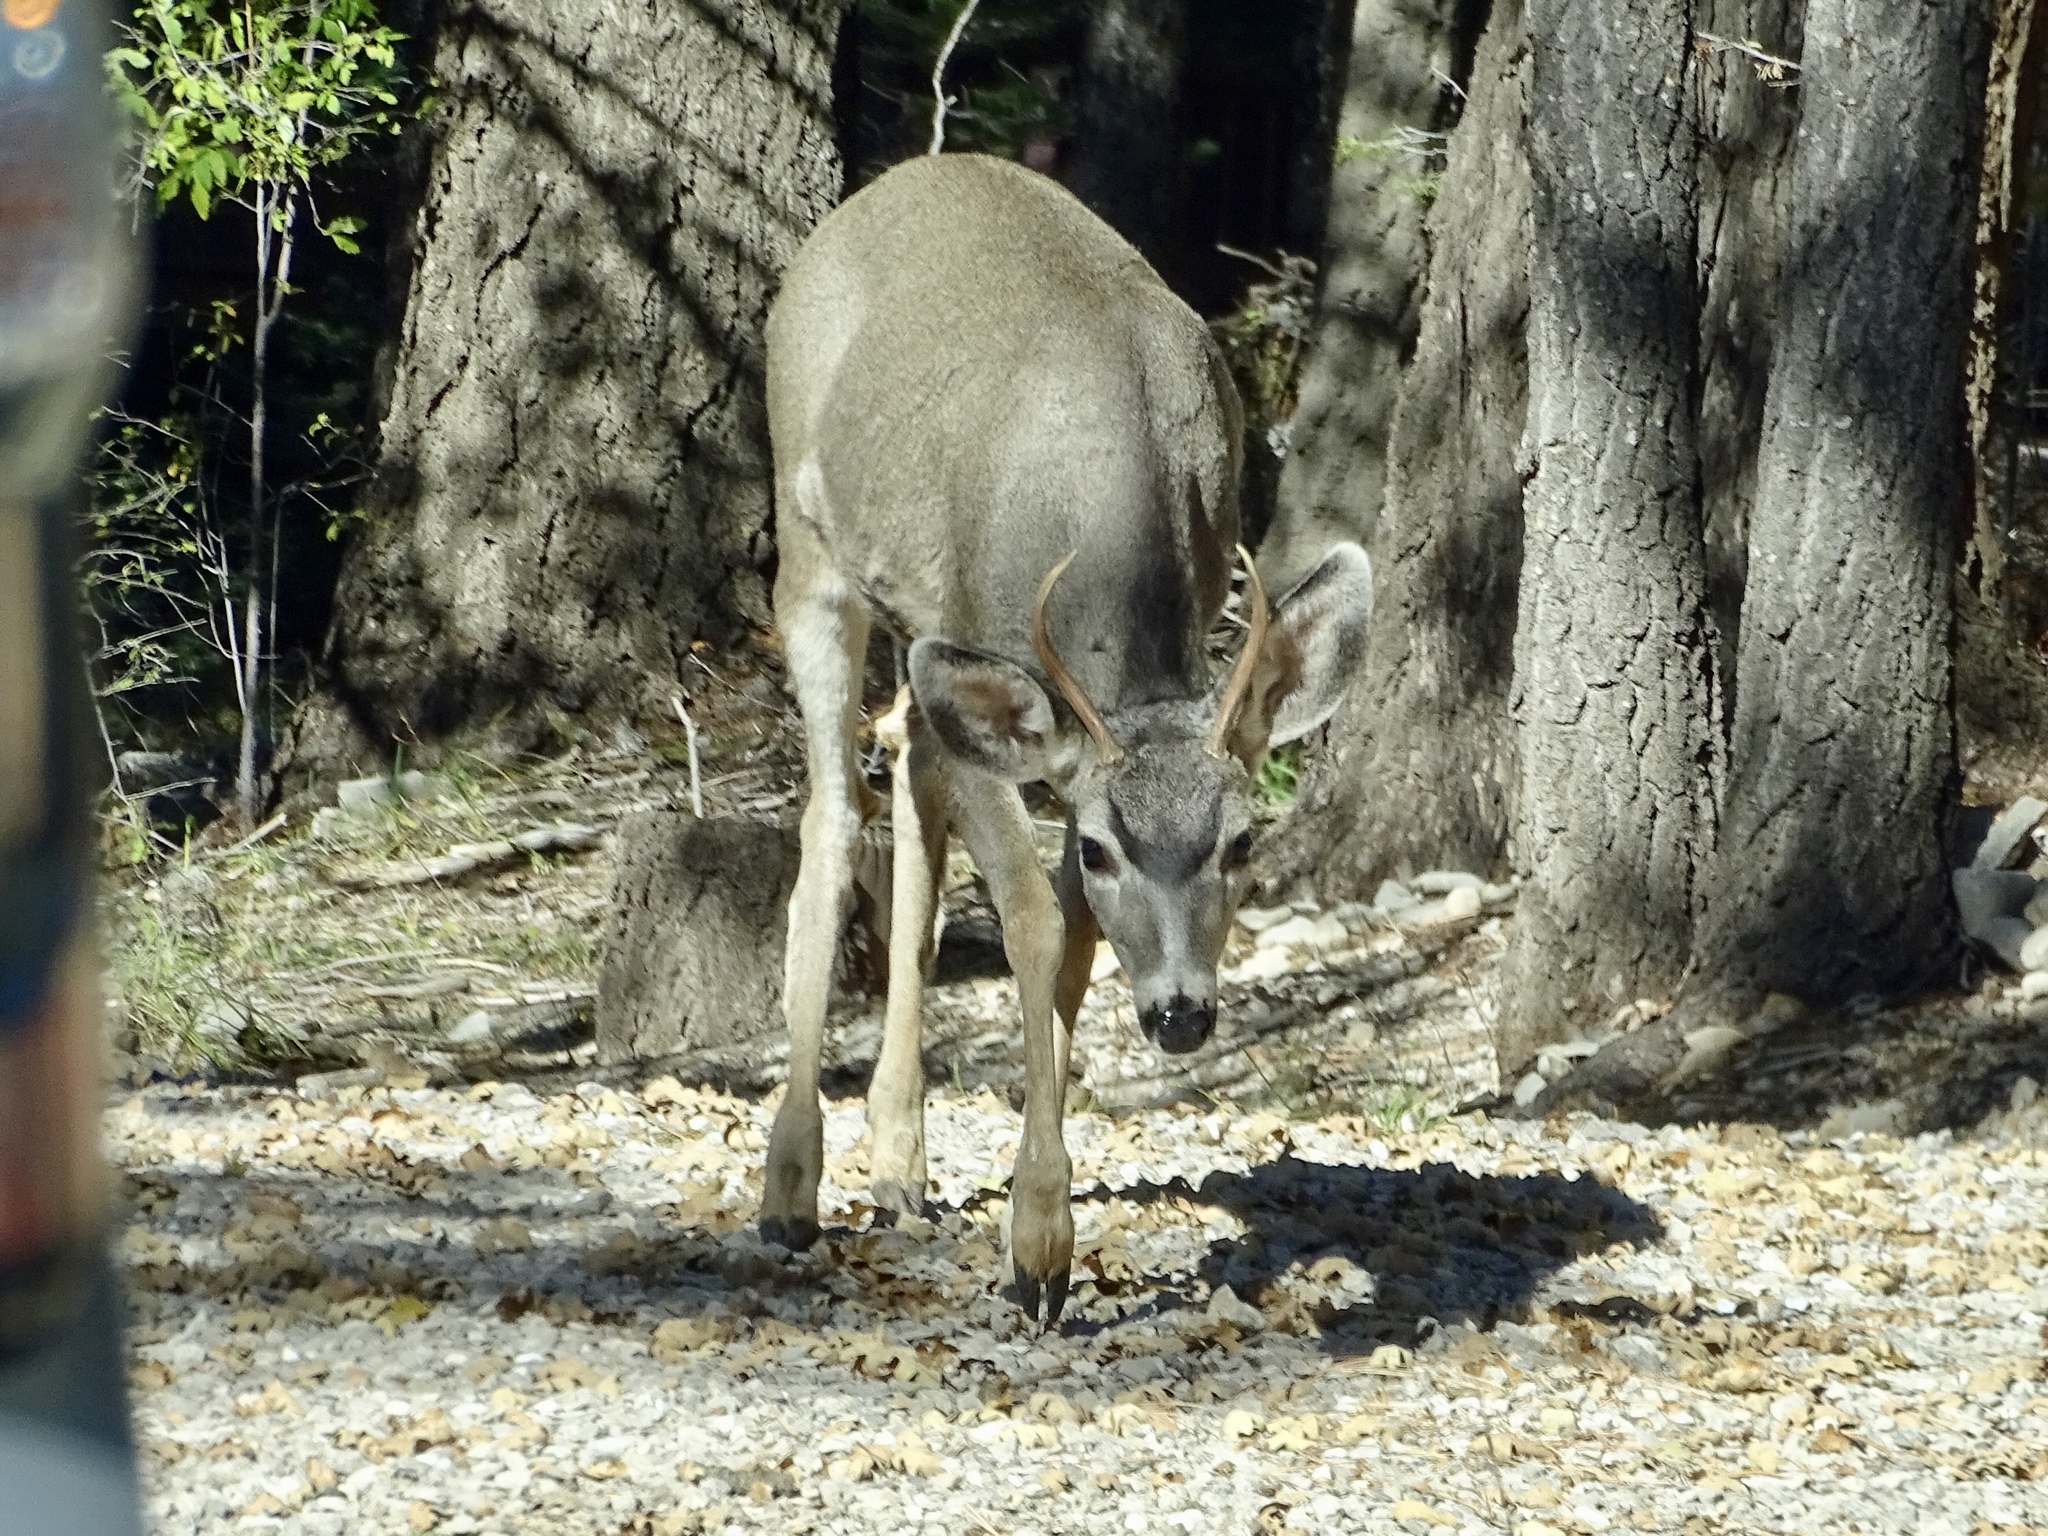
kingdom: Animalia
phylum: Chordata
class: Mammalia
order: Artiodactyla
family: Cervidae
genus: Odocoileus
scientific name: Odocoileus hemionus
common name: Mule deer
